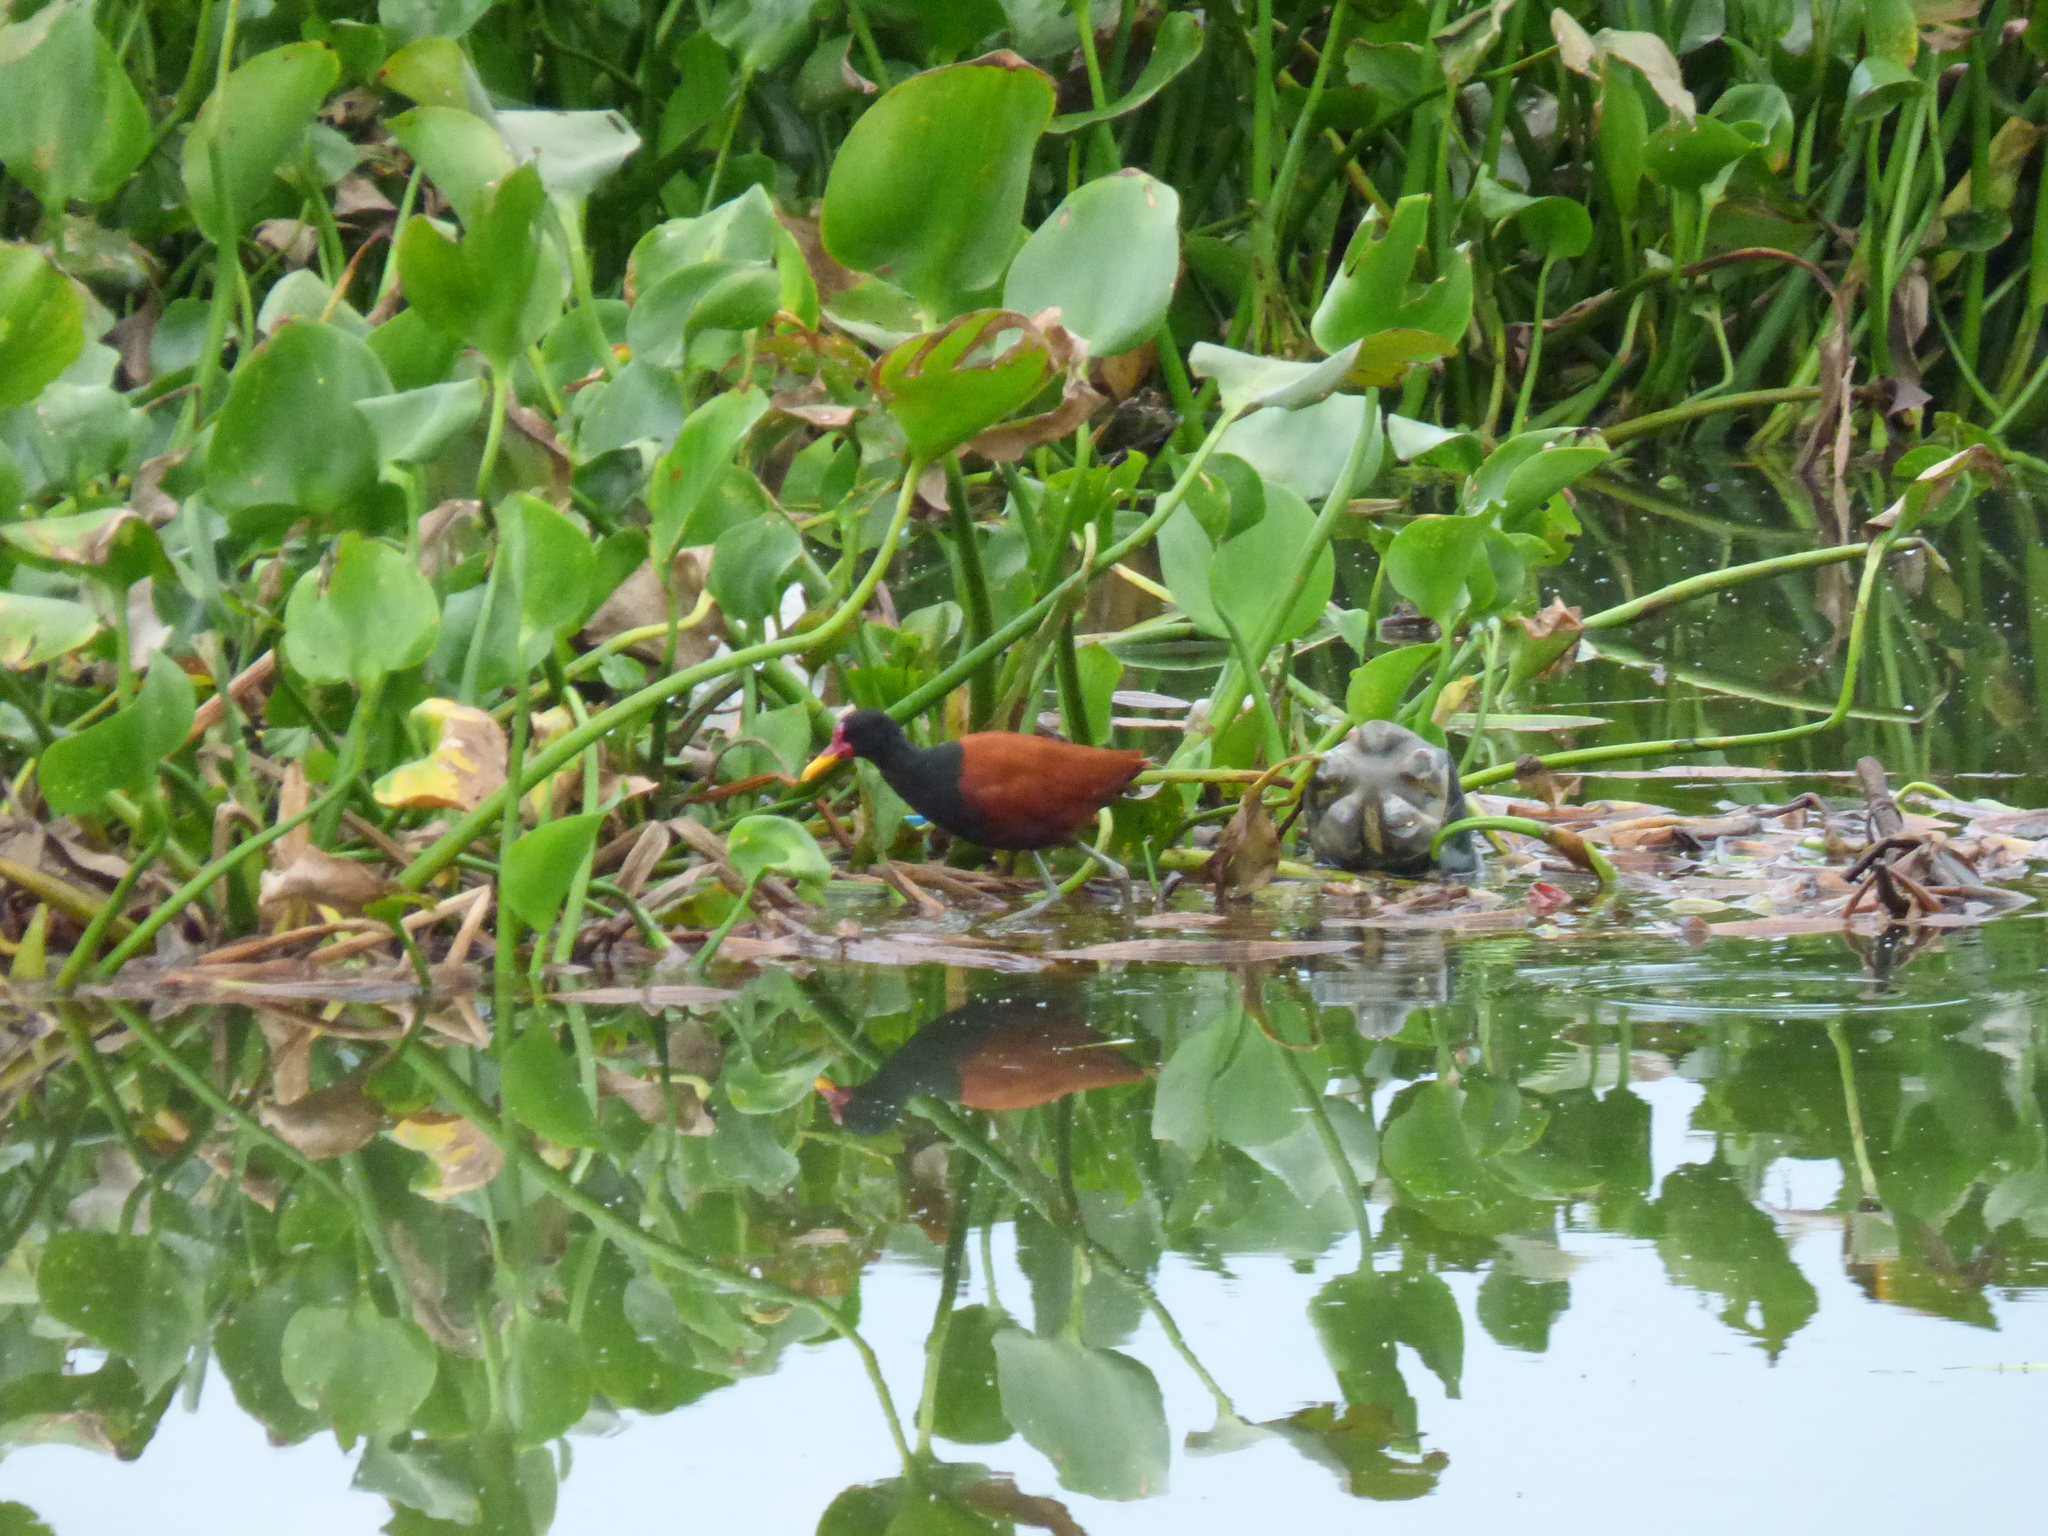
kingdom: Animalia
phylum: Chordata
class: Aves
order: Charadriiformes
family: Jacanidae
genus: Jacana
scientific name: Jacana jacana
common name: Wattled jacana
